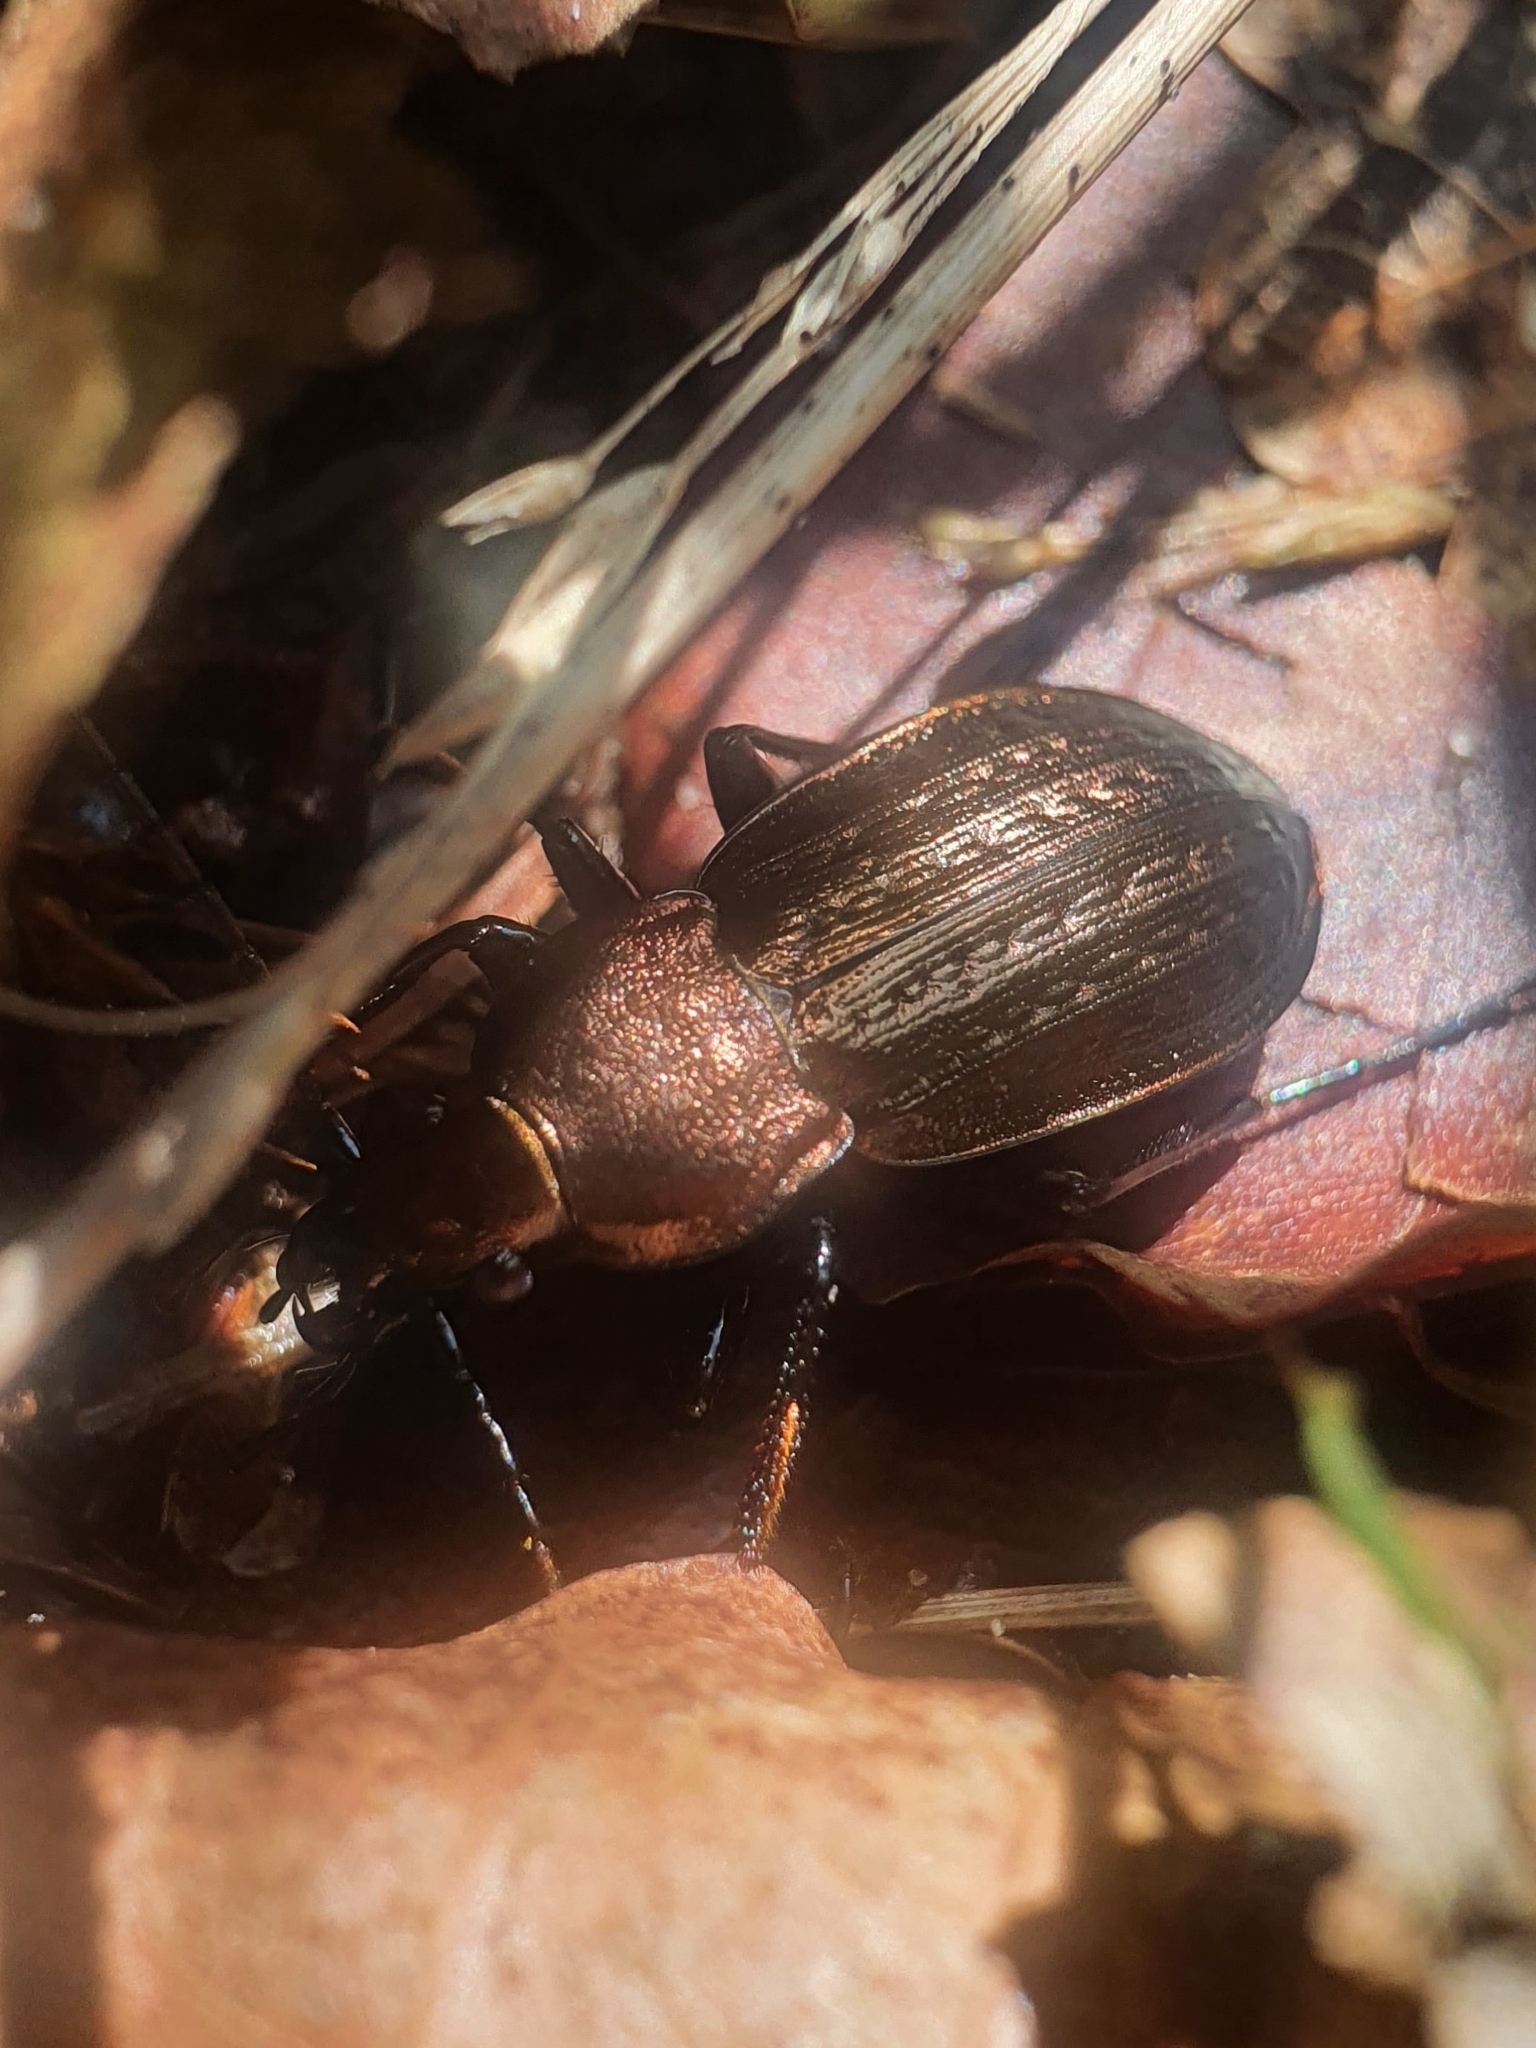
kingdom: Animalia
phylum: Arthropoda
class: Insecta
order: Coleoptera
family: Carabidae
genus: Carabus
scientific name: Carabus arvensis
